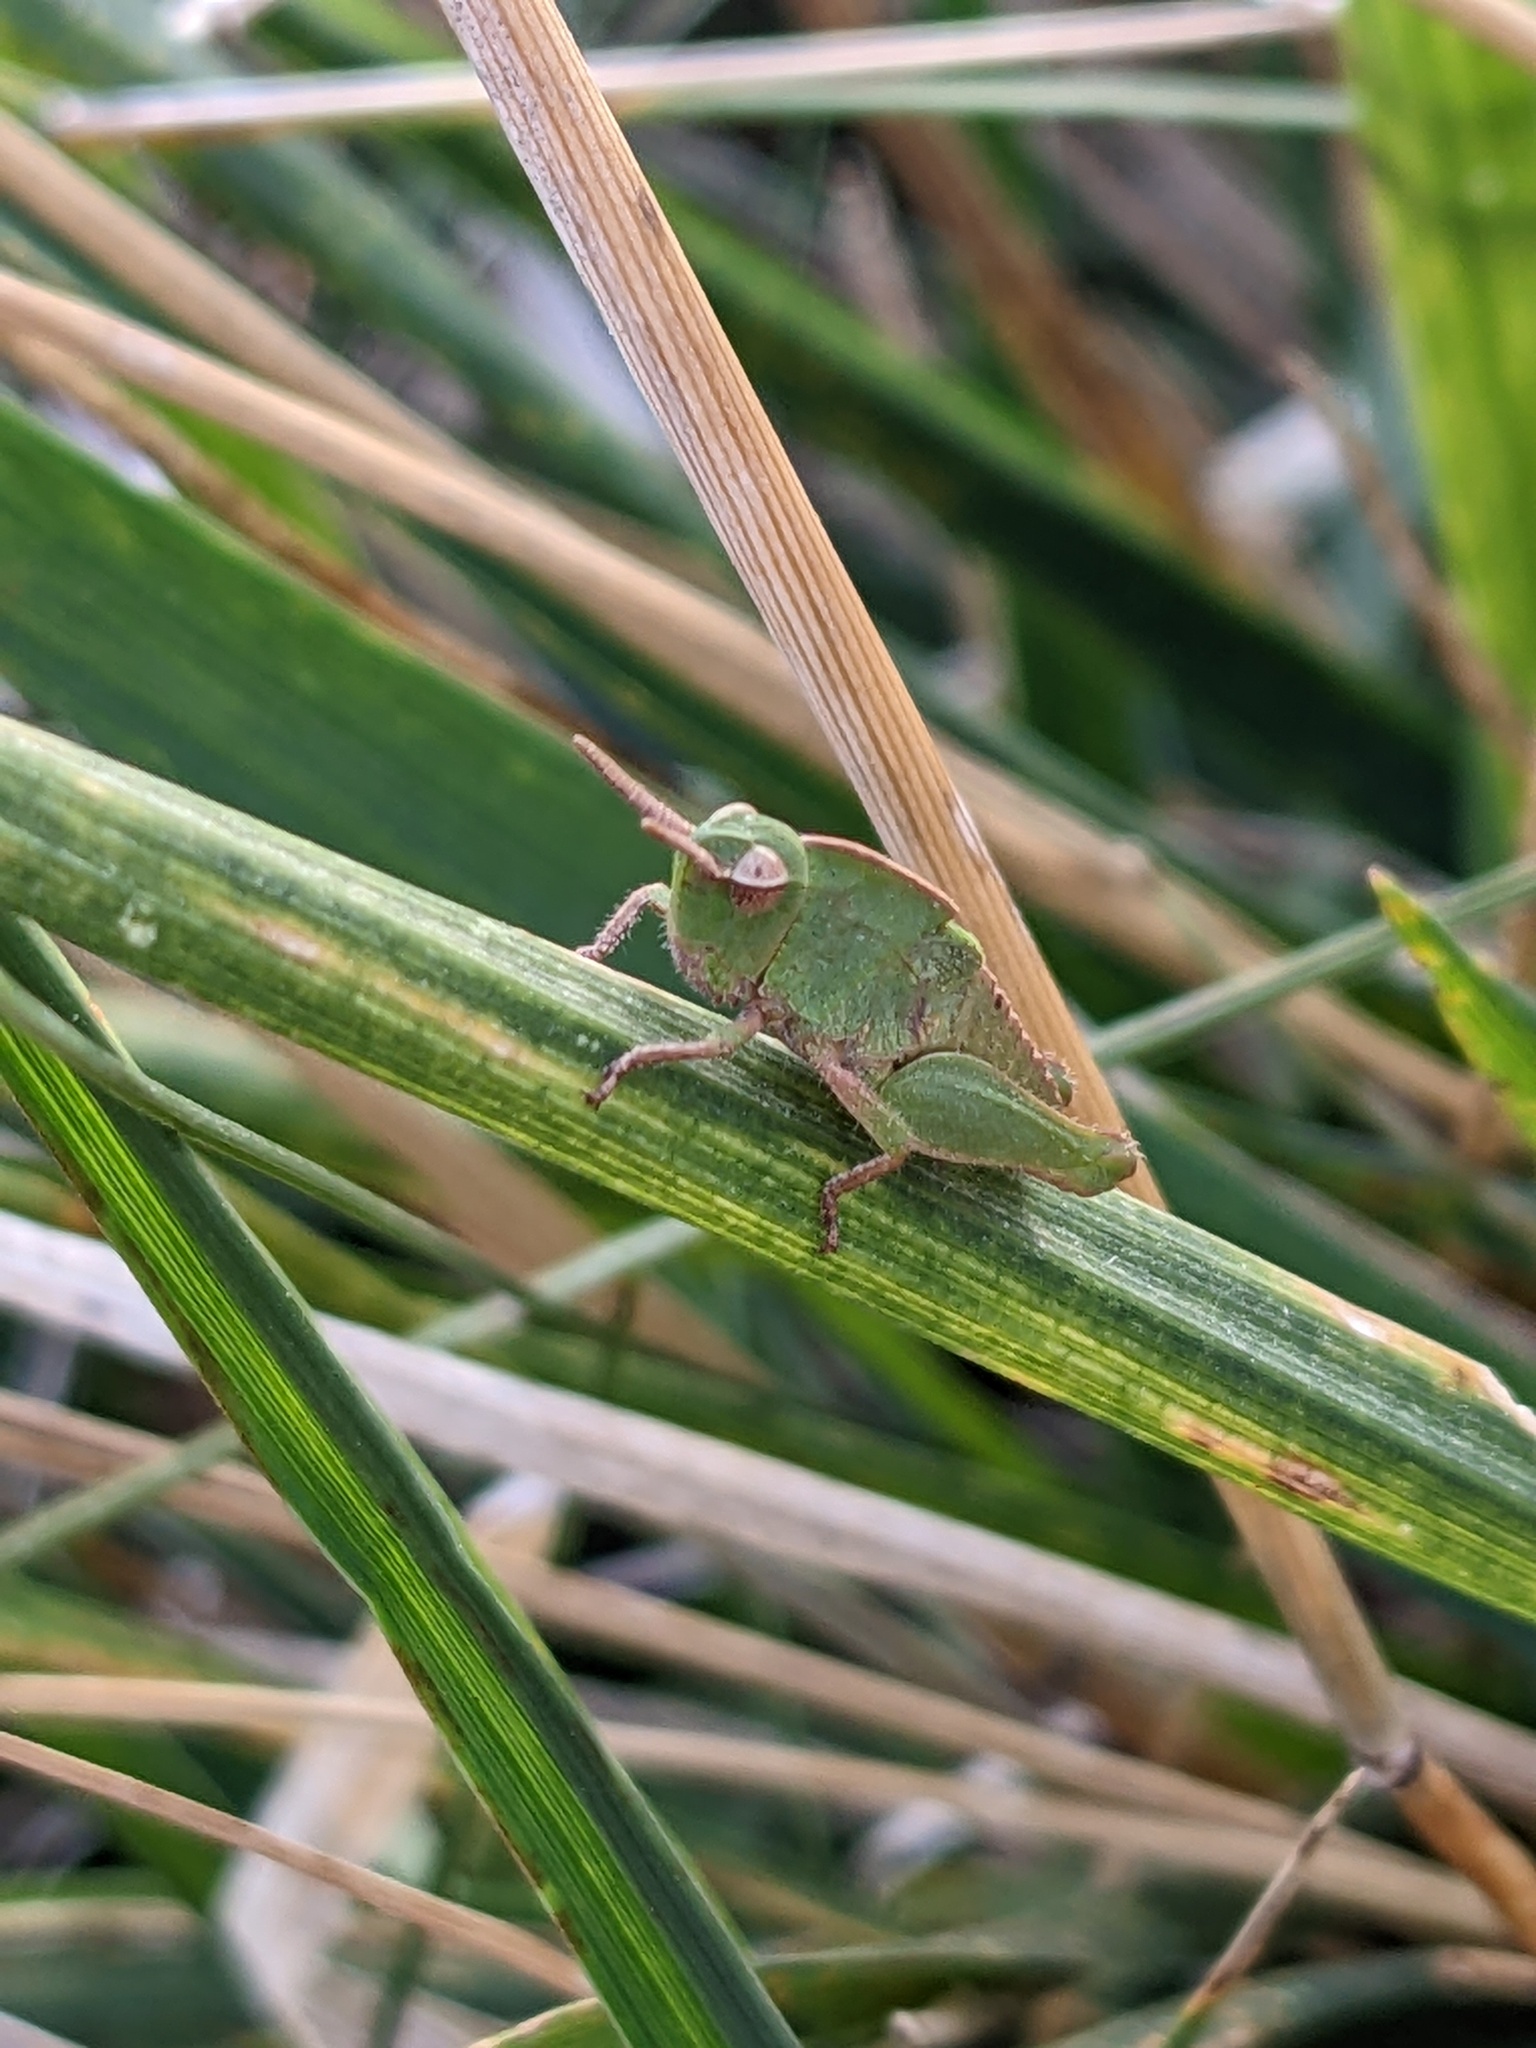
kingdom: Animalia
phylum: Arthropoda
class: Insecta
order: Orthoptera
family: Acrididae
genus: Chortophaga
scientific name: Chortophaga viridifasciata
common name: Green-striped grasshopper
